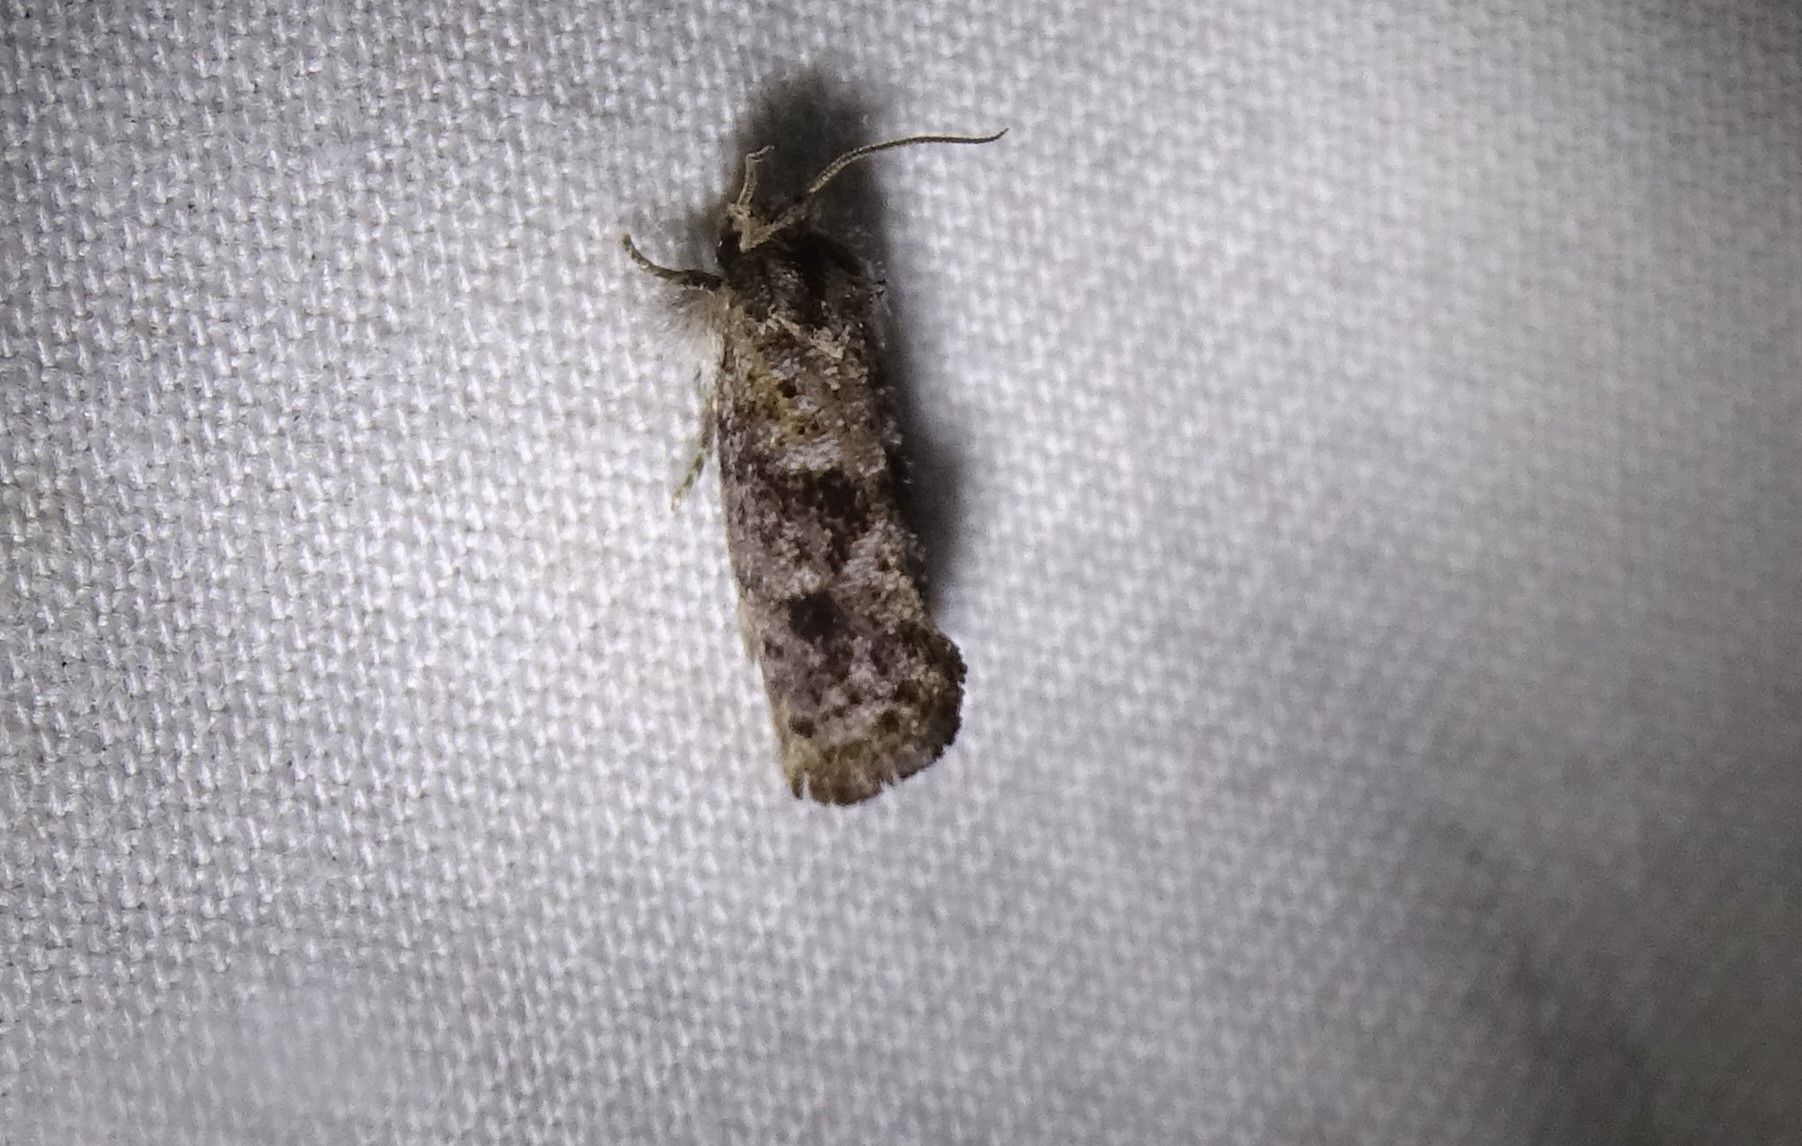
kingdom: Animalia
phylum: Arthropoda
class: Insecta
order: Lepidoptera
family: Tineidae
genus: Acrolophus
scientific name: Acrolophus panamae
